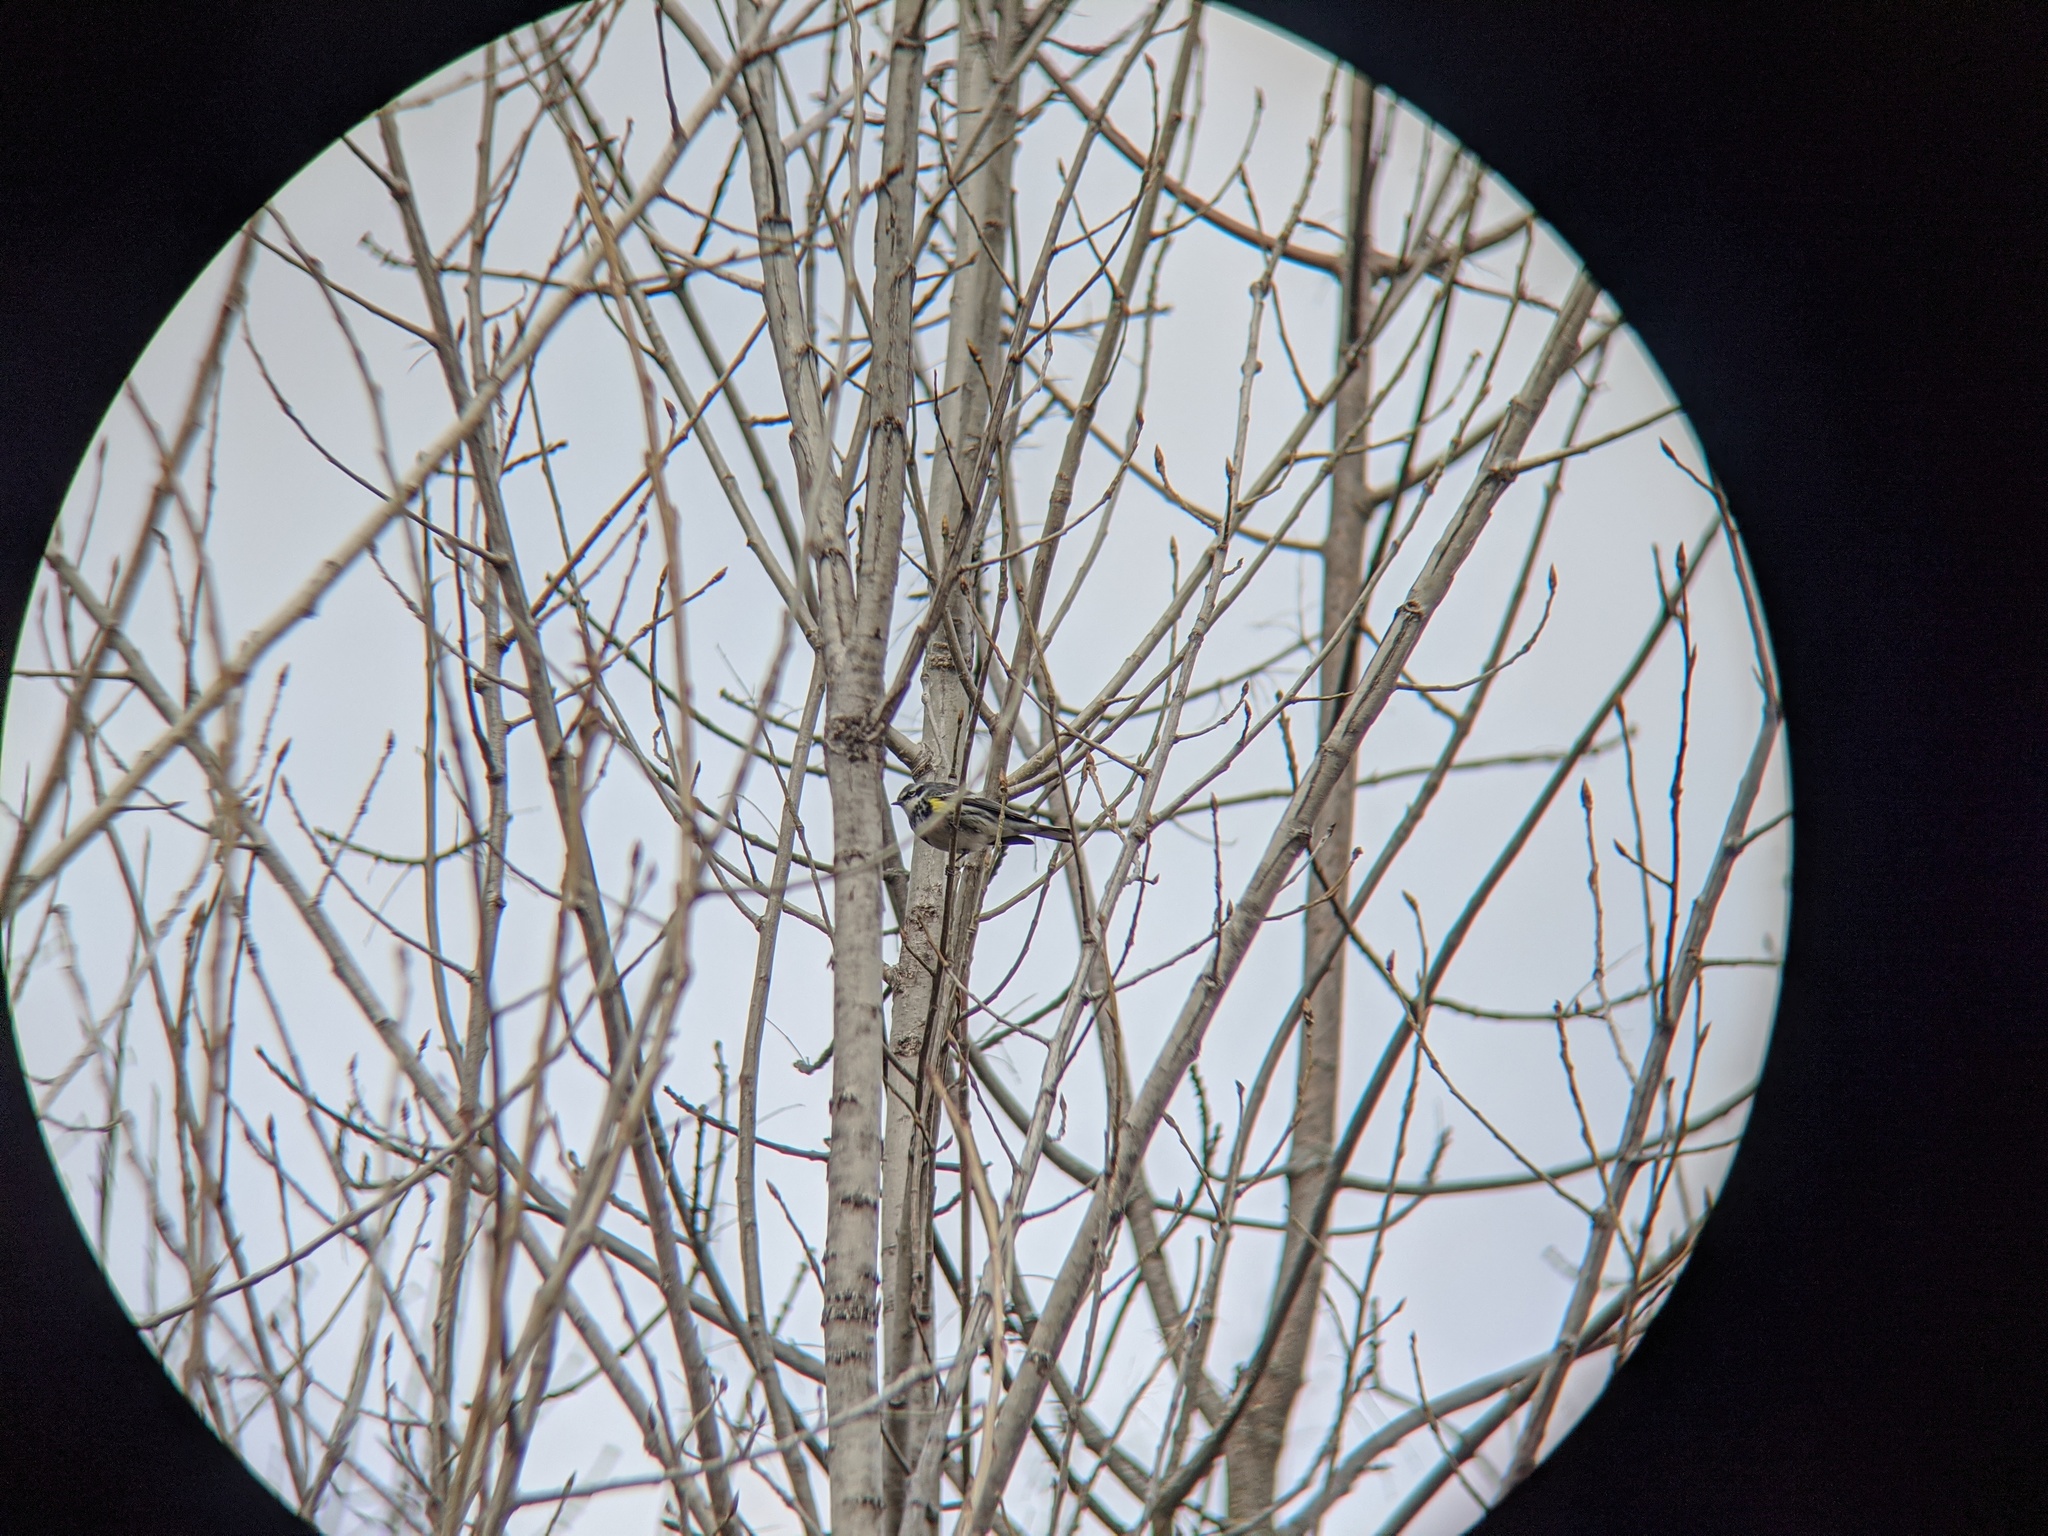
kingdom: Animalia
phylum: Chordata
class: Aves
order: Passeriformes
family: Parulidae
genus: Setophaga
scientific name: Setophaga coronata
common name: Myrtle warbler
